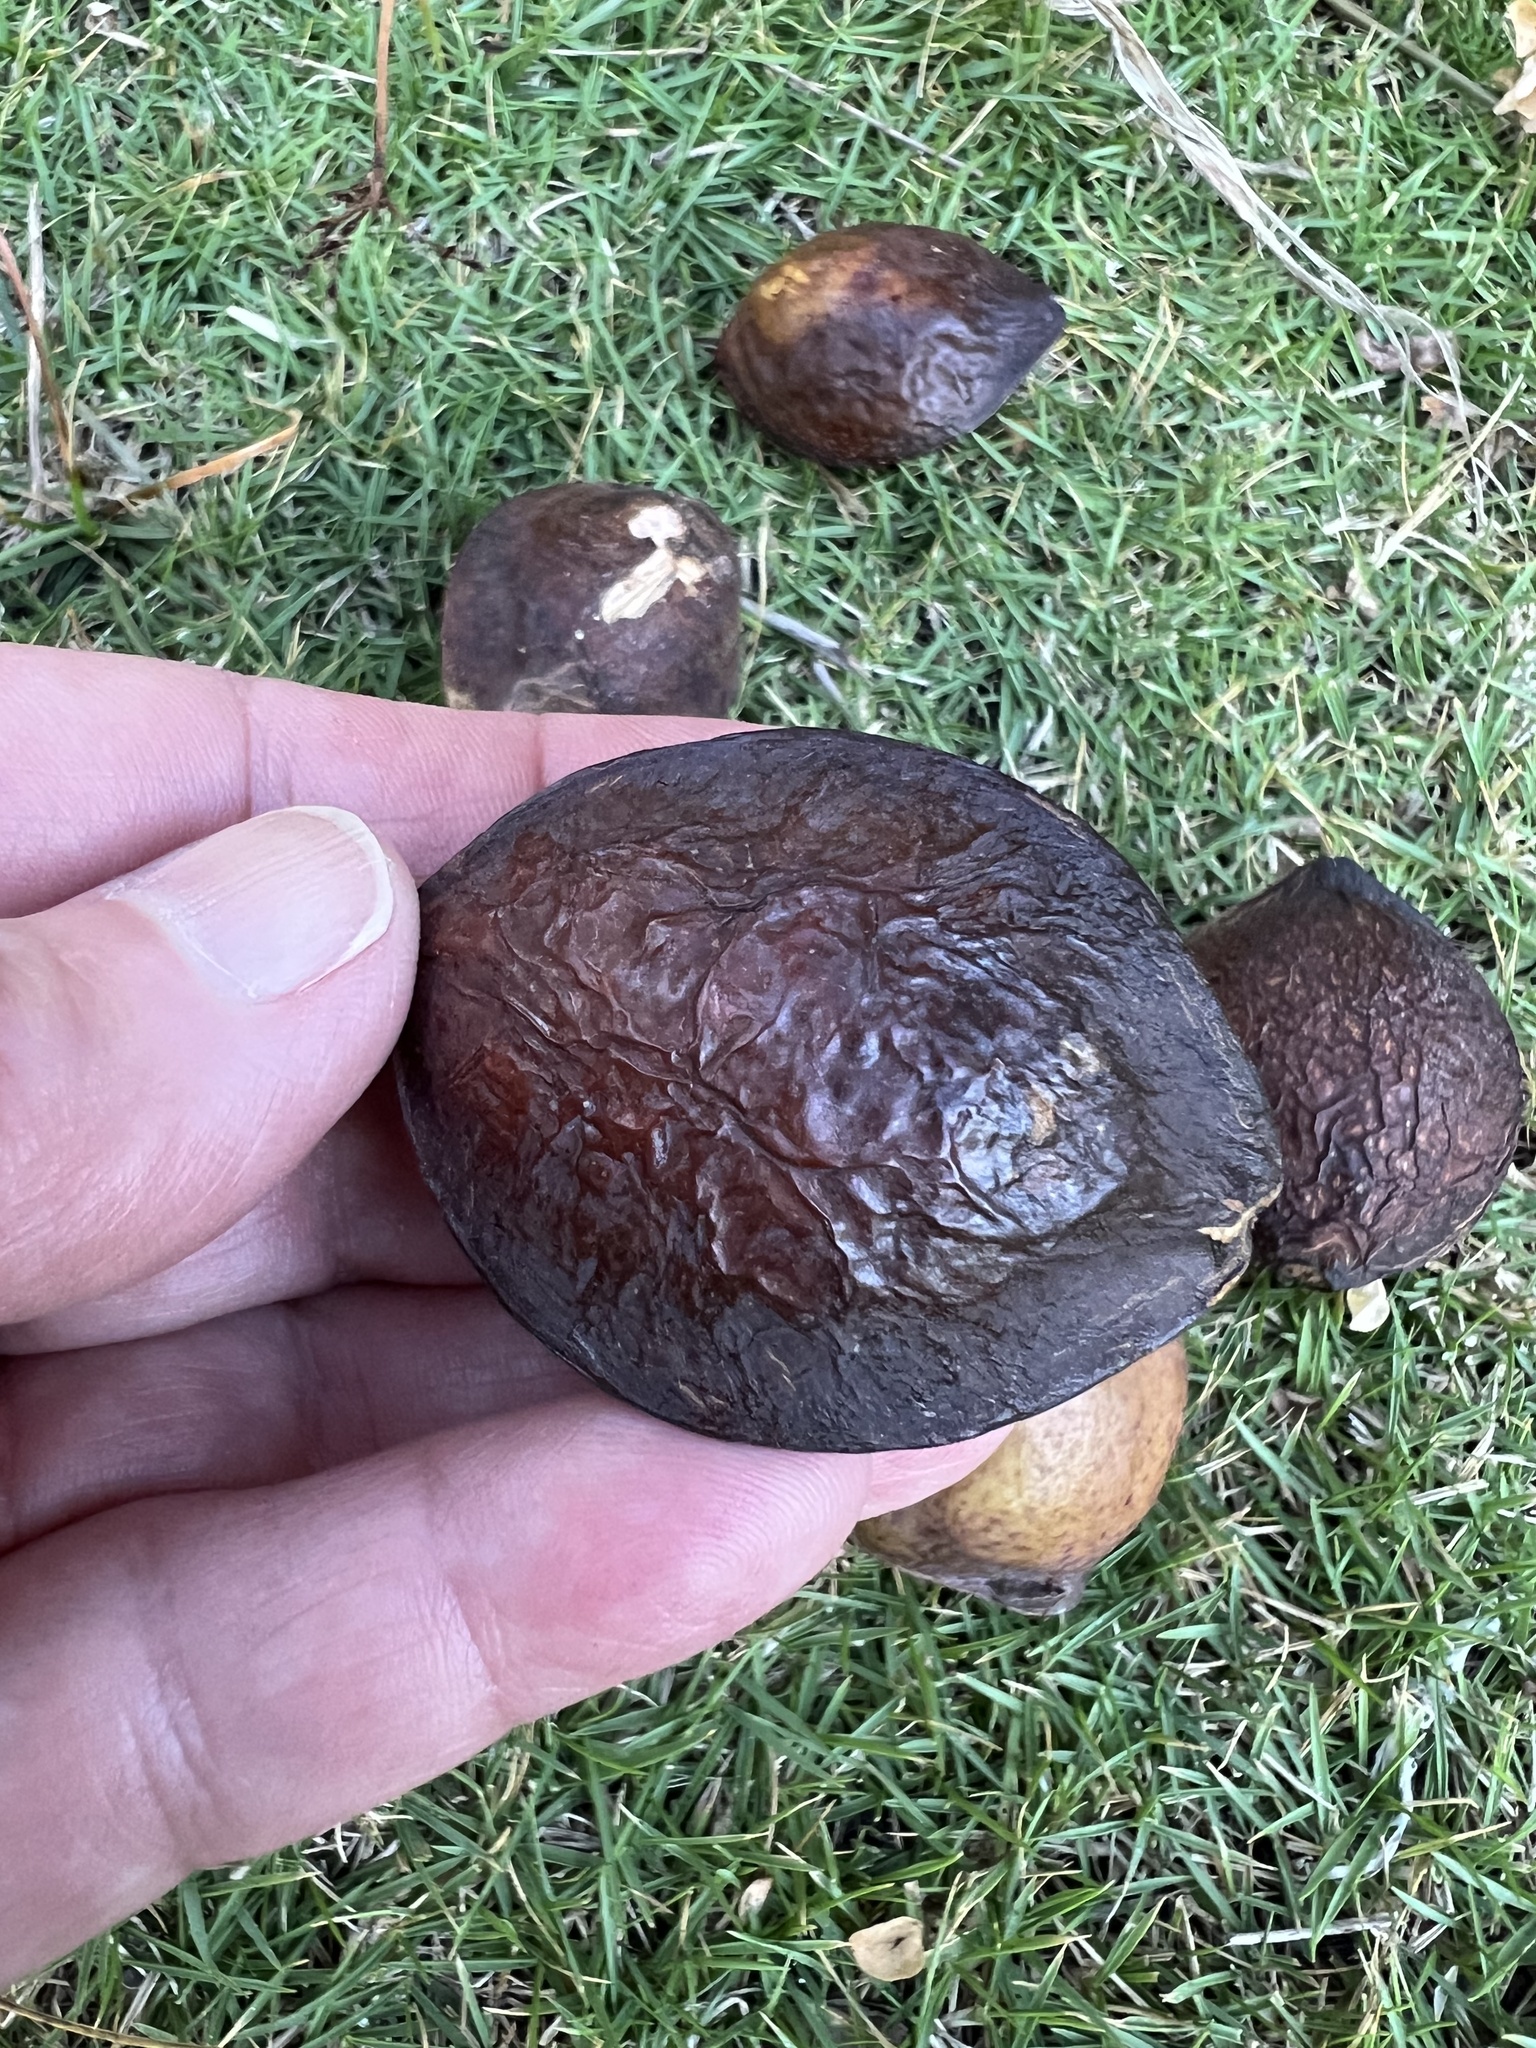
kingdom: Plantae
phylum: Tracheophyta
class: Magnoliopsida
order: Myrtales
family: Combretaceae
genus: Terminalia
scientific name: Terminalia catappa
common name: Tropical almond
